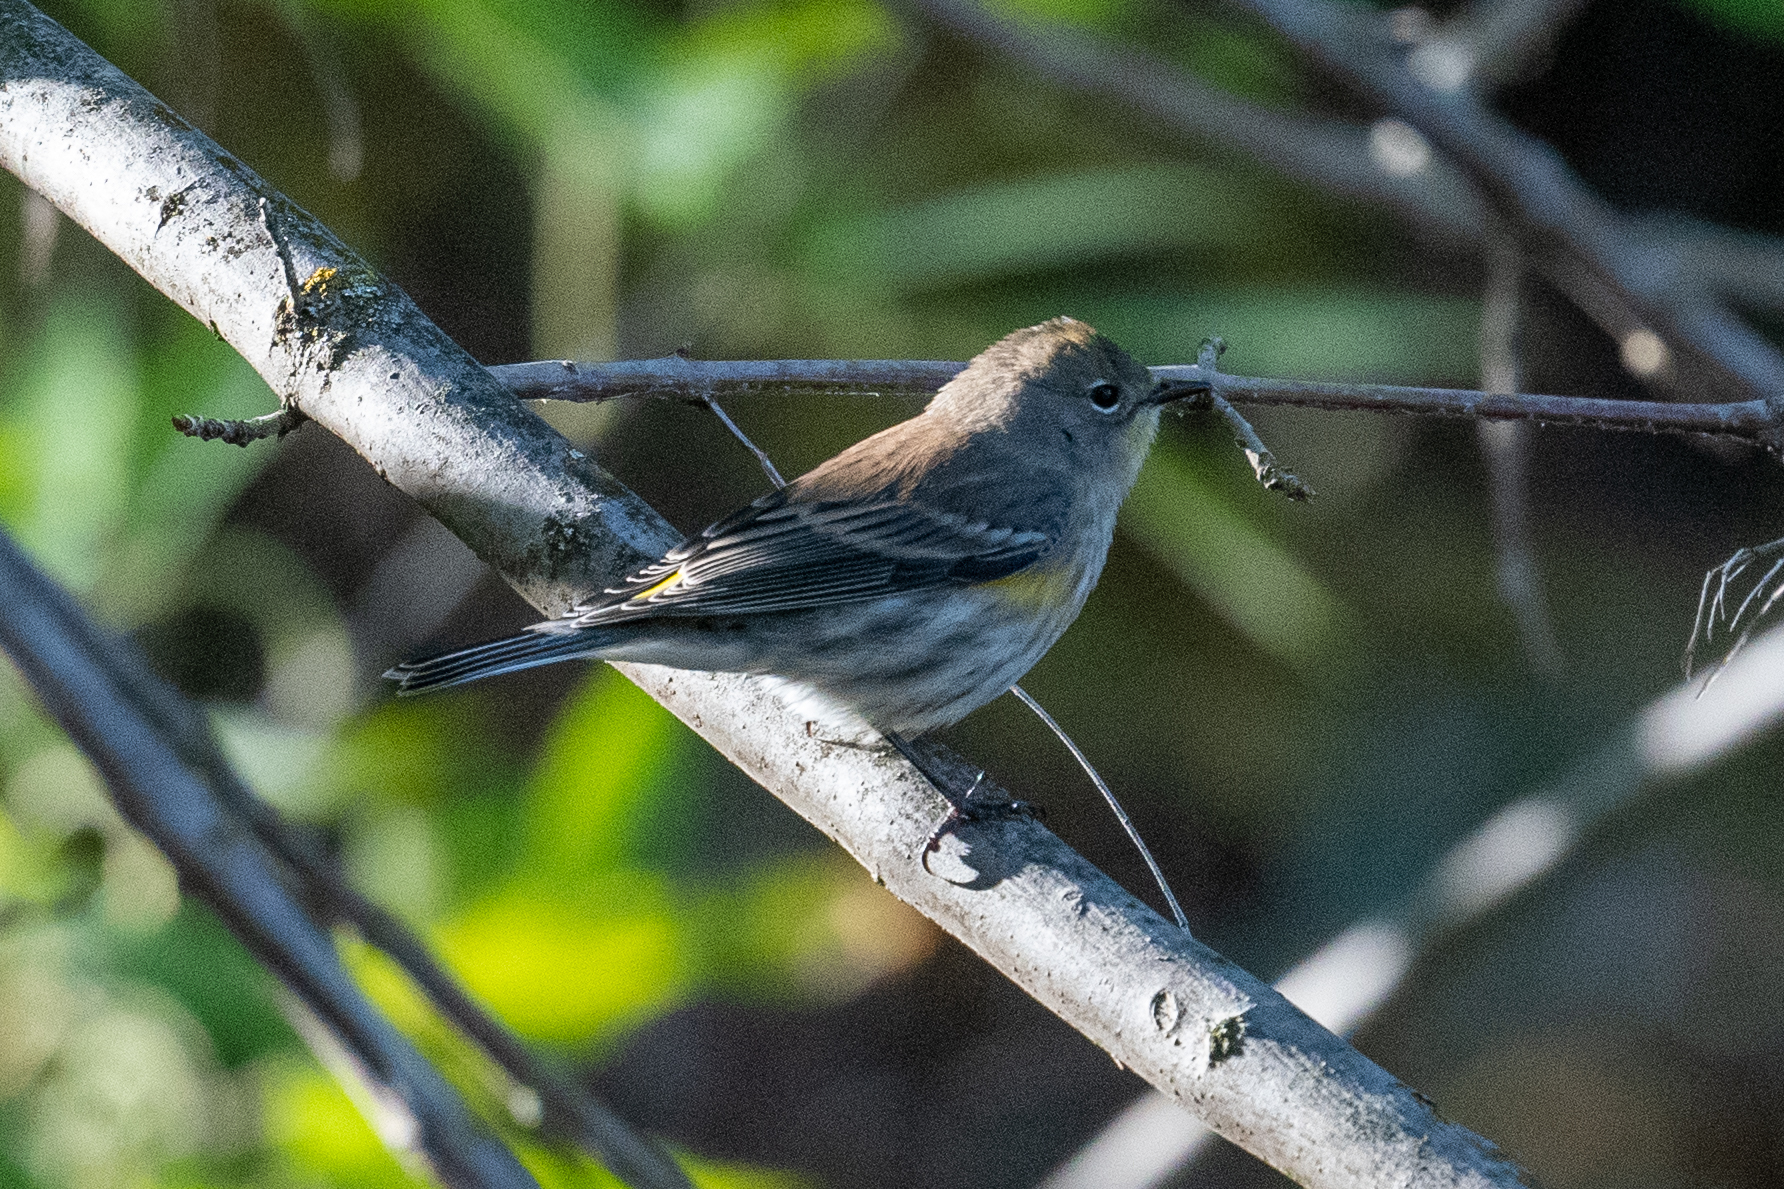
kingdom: Animalia
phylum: Chordata
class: Aves
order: Passeriformes
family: Parulidae
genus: Setophaga
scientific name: Setophaga coronata
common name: Myrtle warbler
